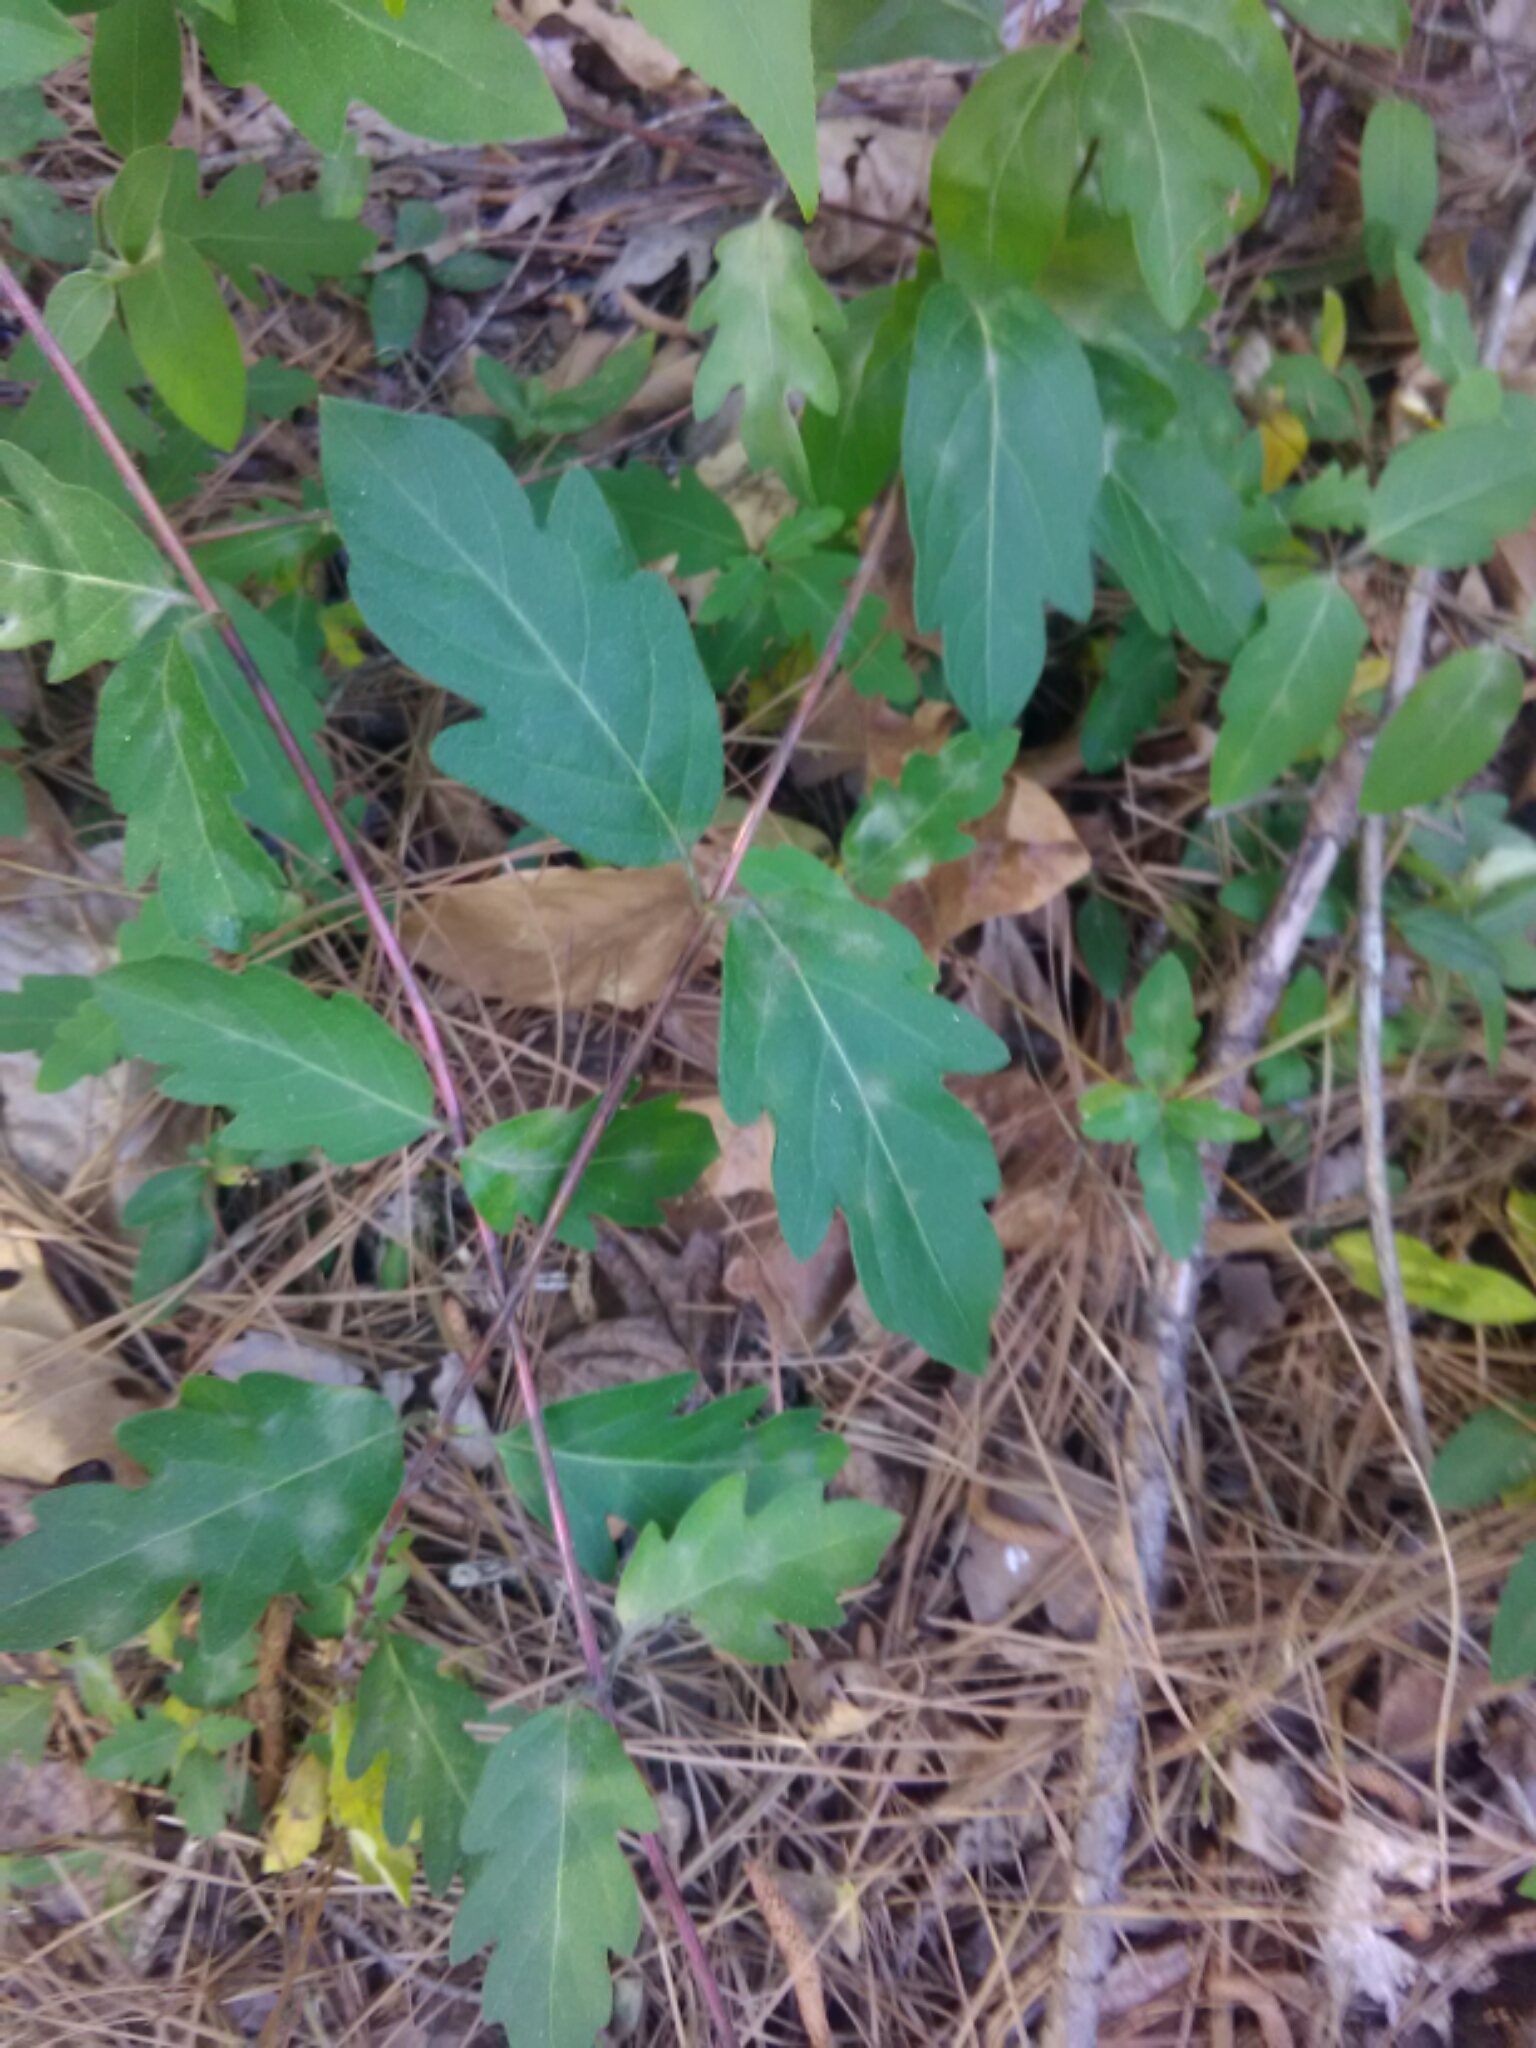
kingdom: Plantae
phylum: Tracheophyta
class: Magnoliopsida
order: Dipsacales
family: Caprifoliaceae
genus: Lonicera
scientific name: Lonicera japonica
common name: Japanese honeysuckle
